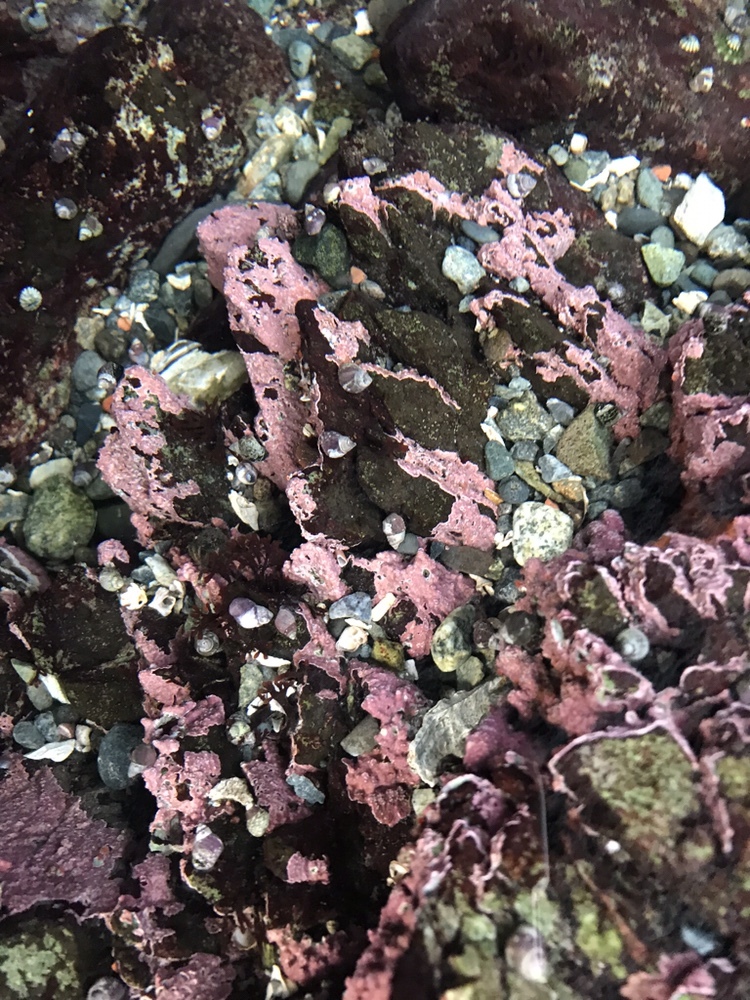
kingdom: Plantae
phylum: Rhodophyta
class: Florideophyceae
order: Corallinales
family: Corallinaceae
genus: Chamberlainium
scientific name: Chamberlainium tumidum
